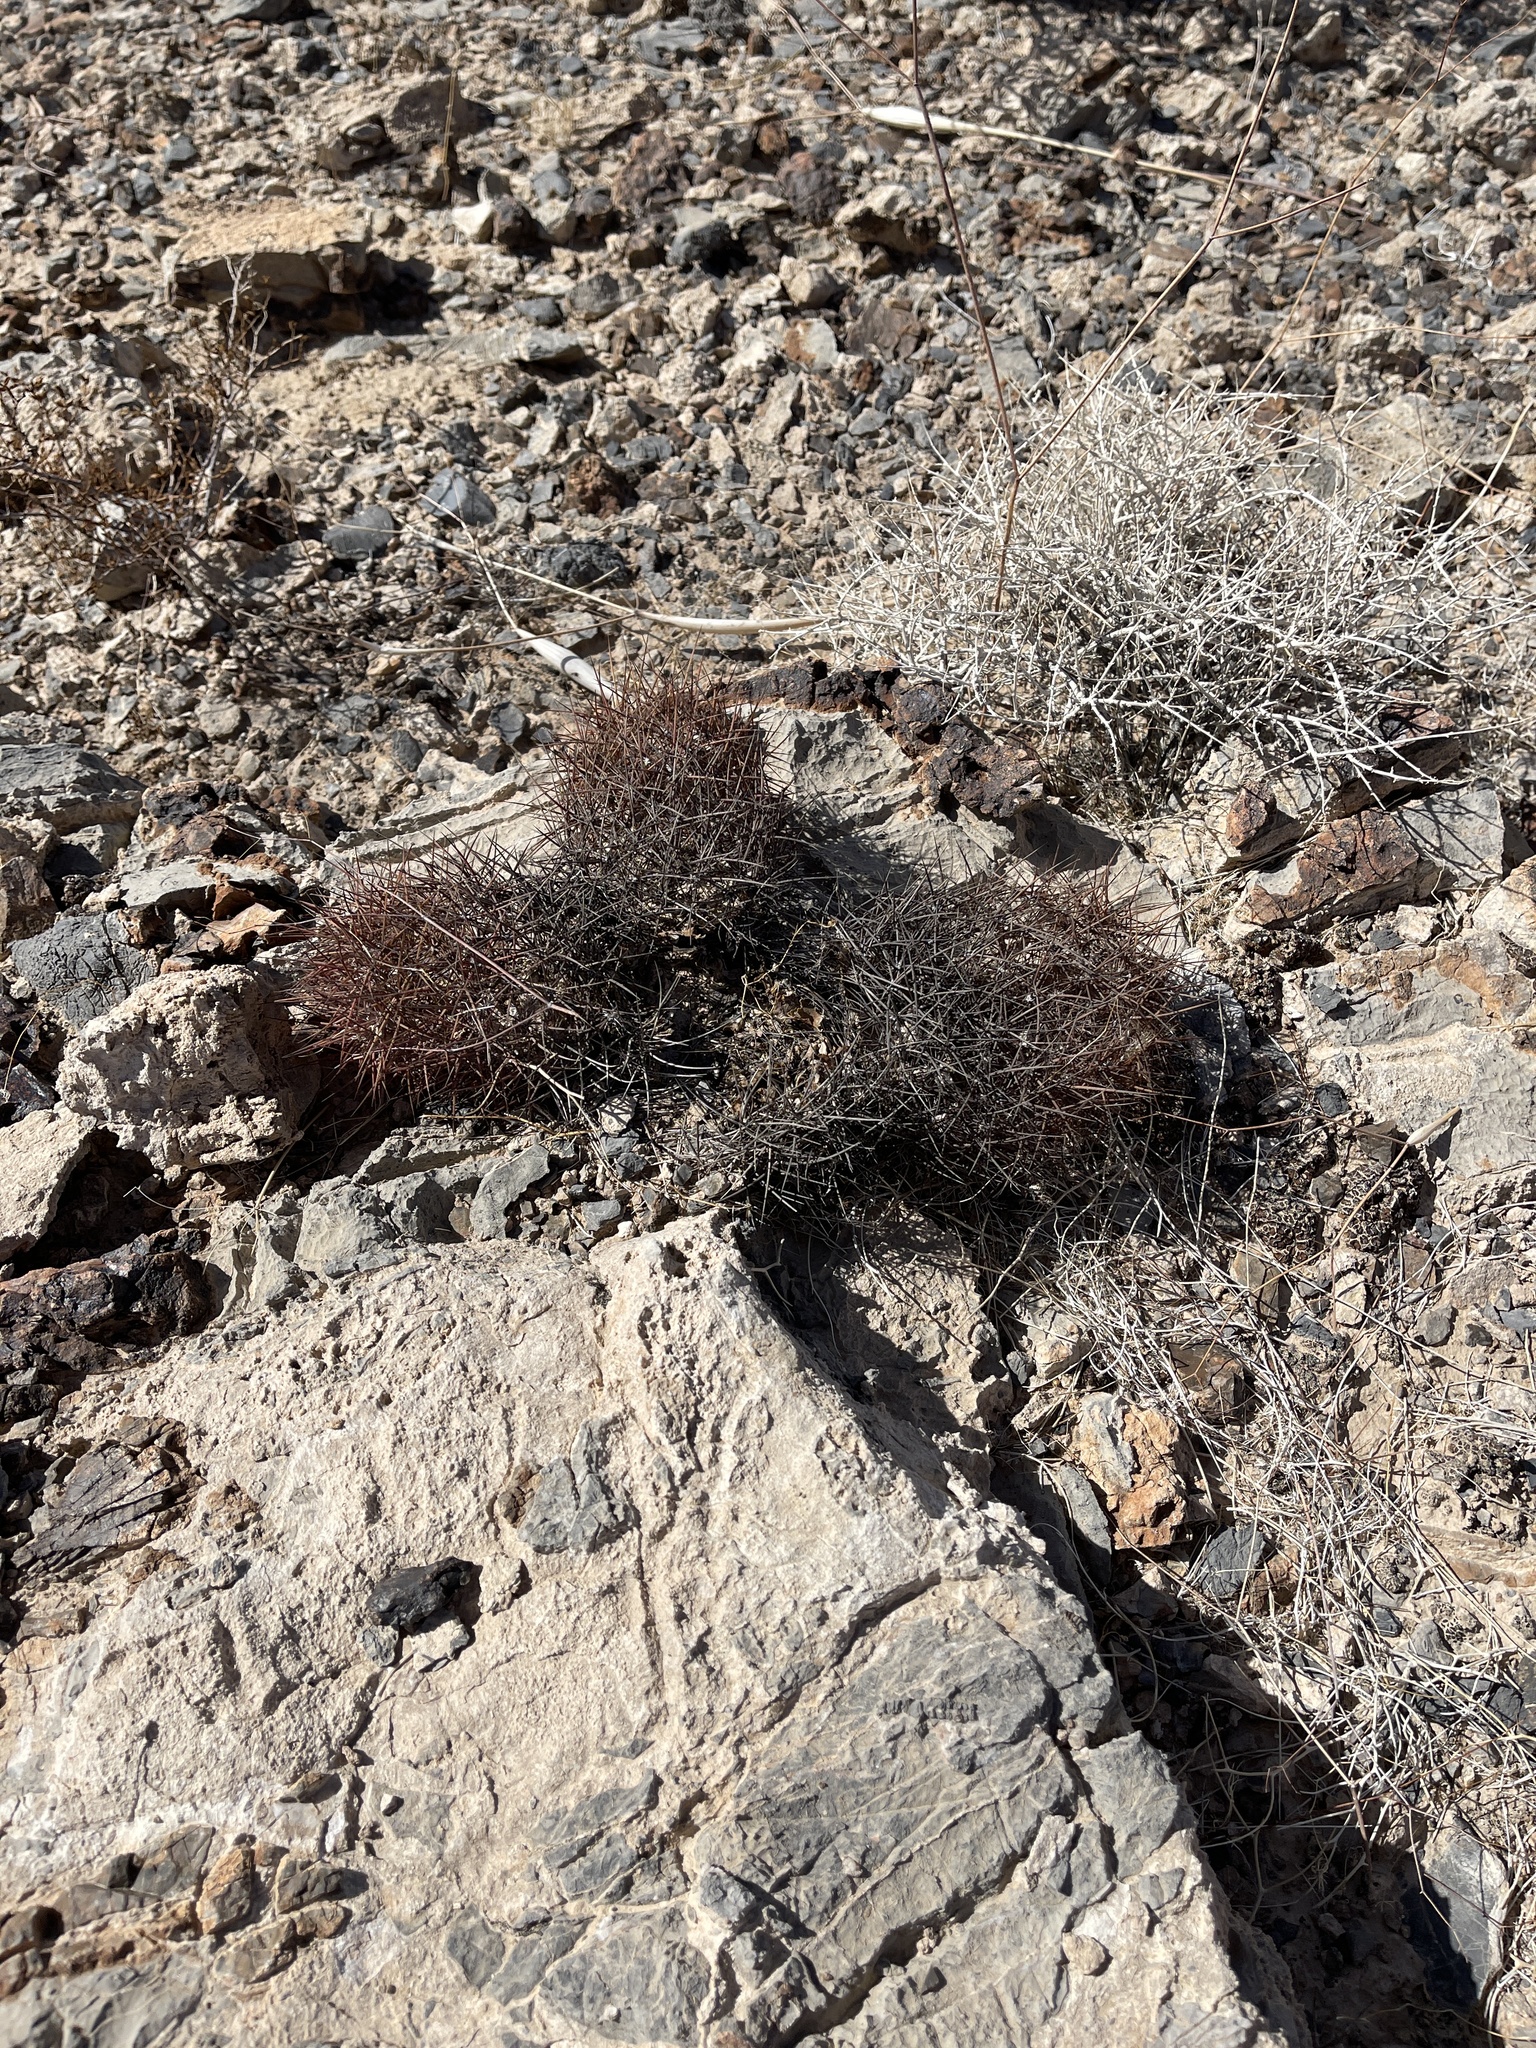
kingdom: Plantae
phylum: Tracheophyta
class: Magnoliopsida
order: Caryophyllales
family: Cactaceae
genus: Sclerocactus
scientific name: Sclerocactus johnsonii
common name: Eight-spine fishhook cactus
